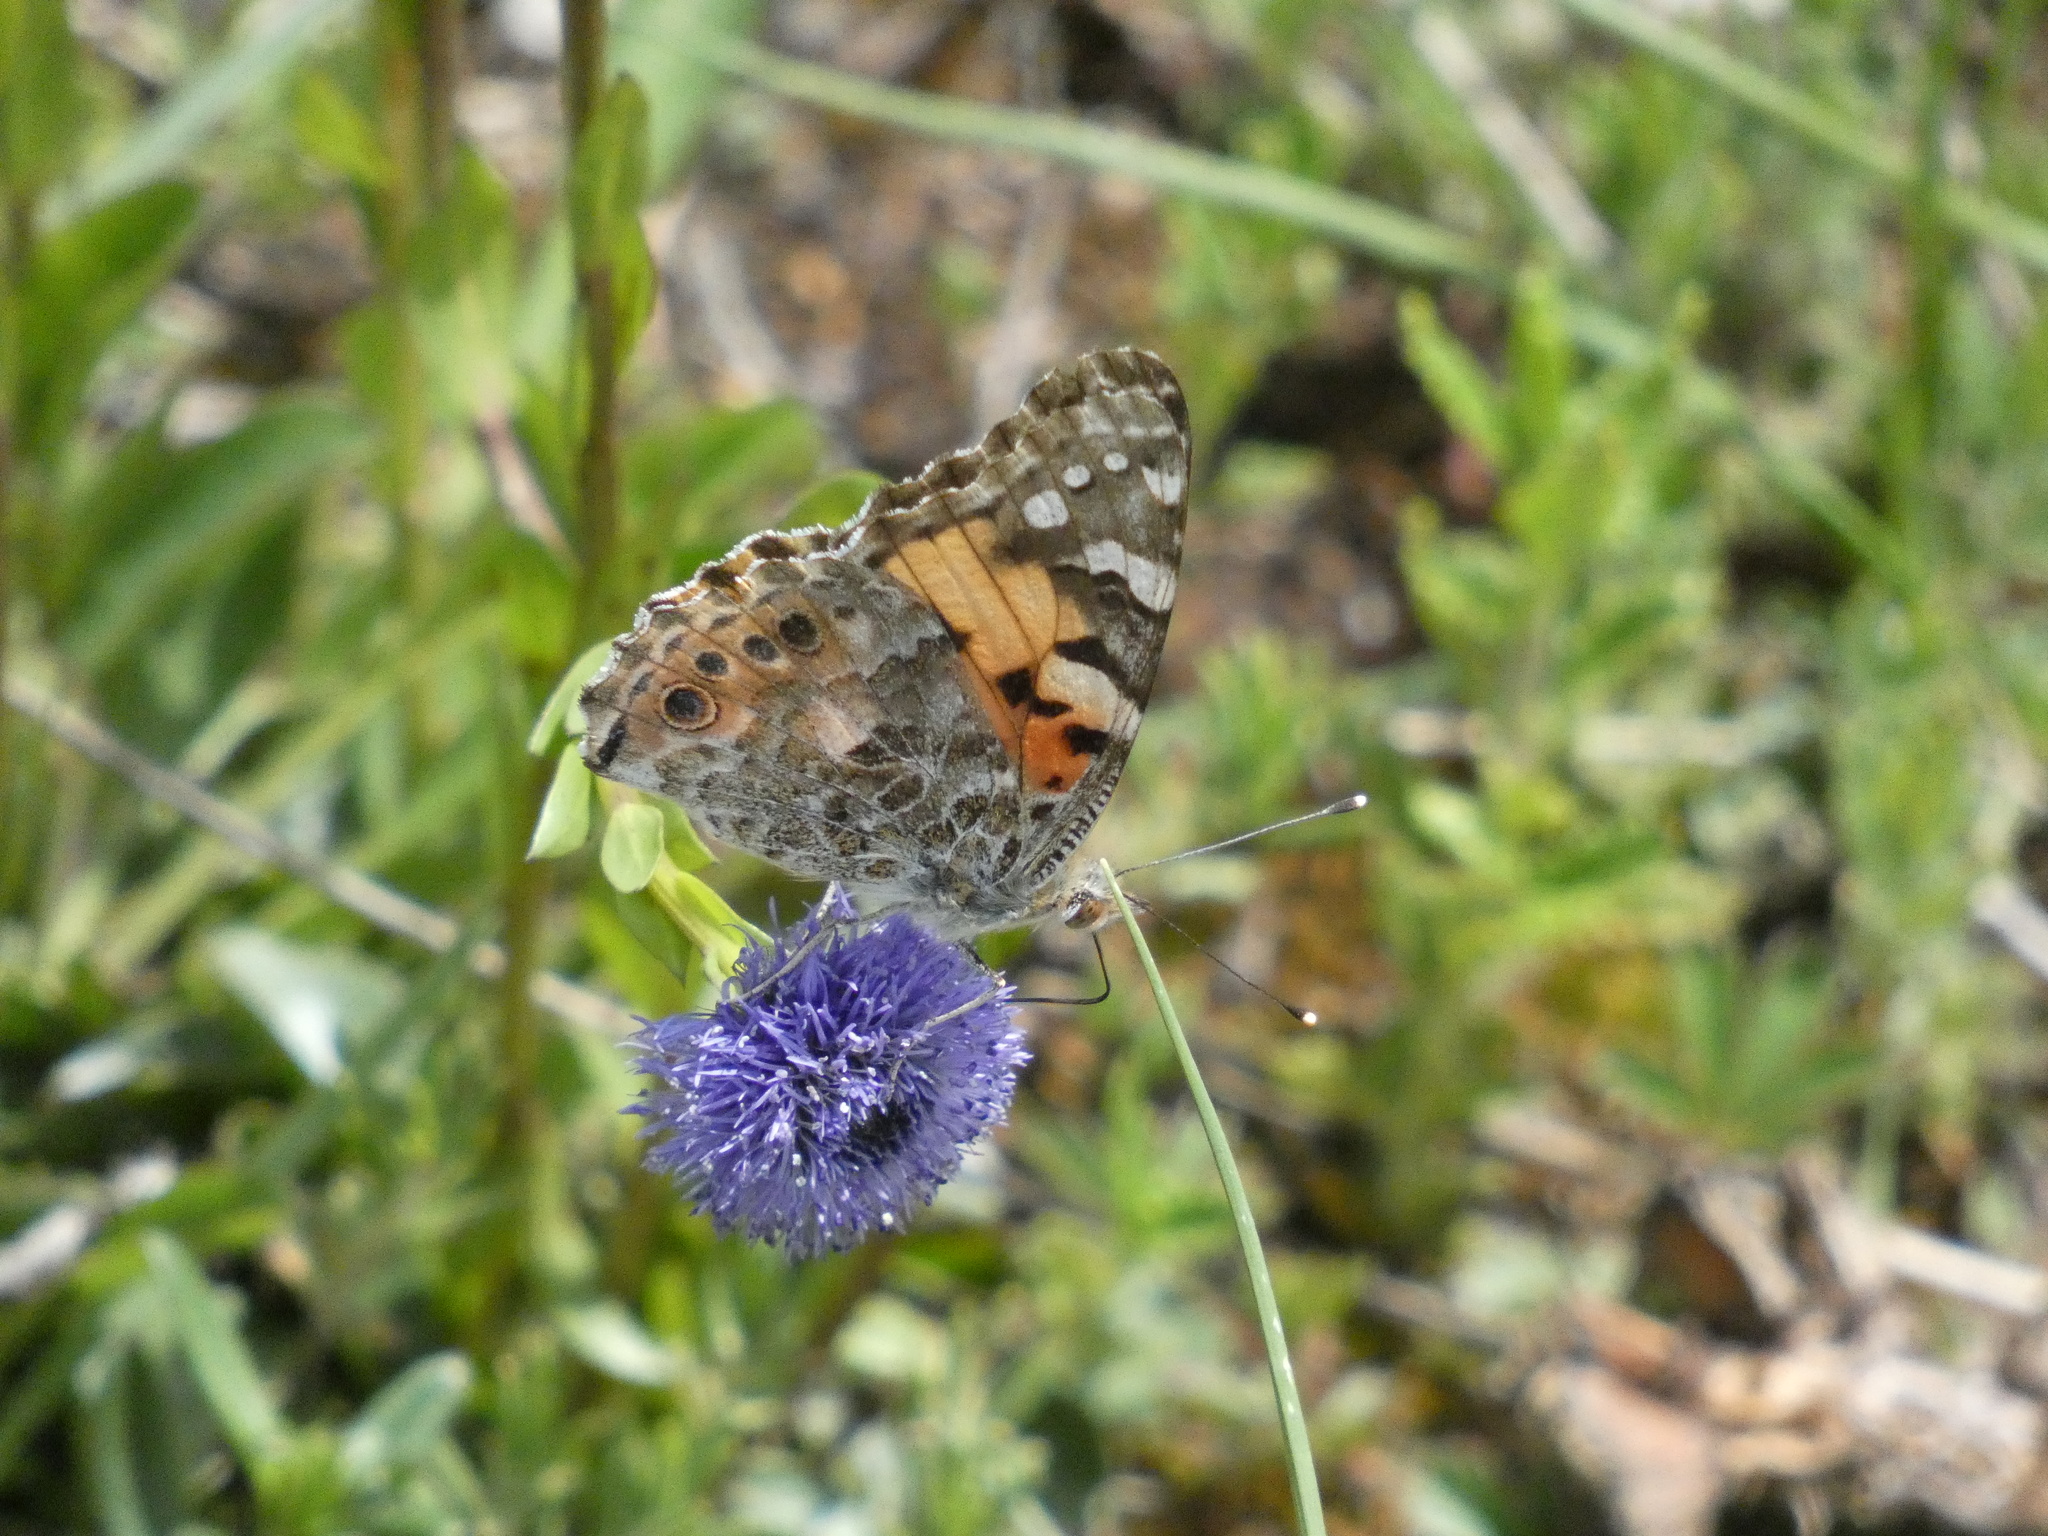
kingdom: Animalia
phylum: Arthropoda
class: Insecta
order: Lepidoptera
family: Nymphalidae
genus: Vanessa
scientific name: Vanessa cardui
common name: Painted lady
